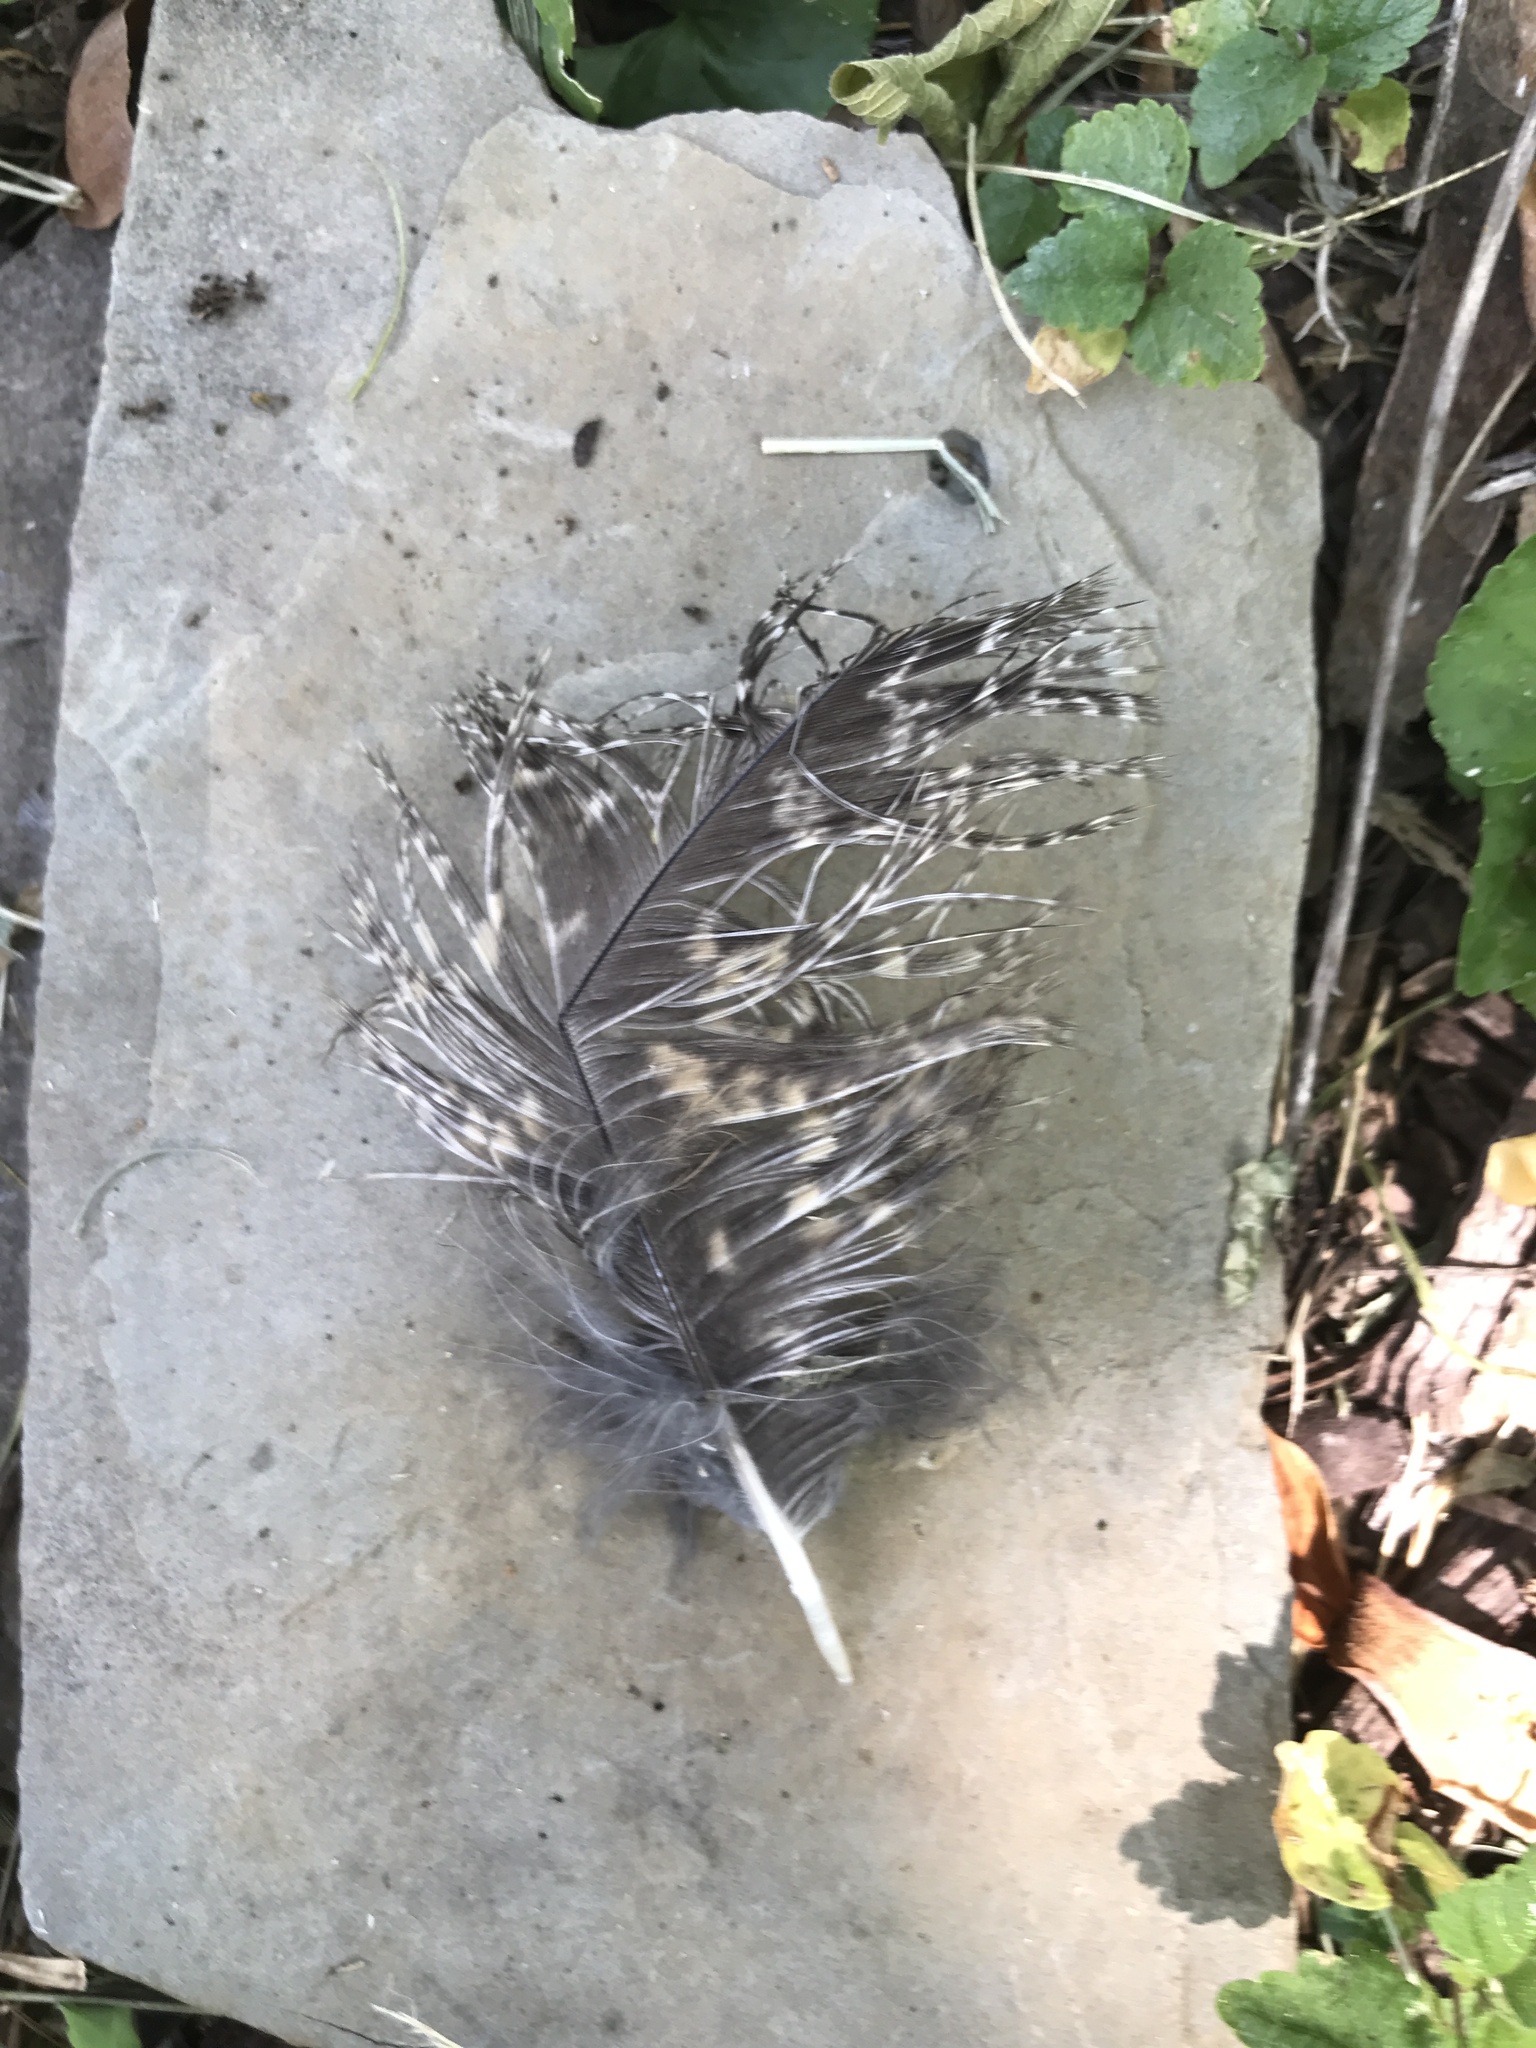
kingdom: Animalia
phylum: Chordata
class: Aves
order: Strigiformes
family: Strigidae
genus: Bubo
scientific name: Bubo virginianus
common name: Great horned owl
